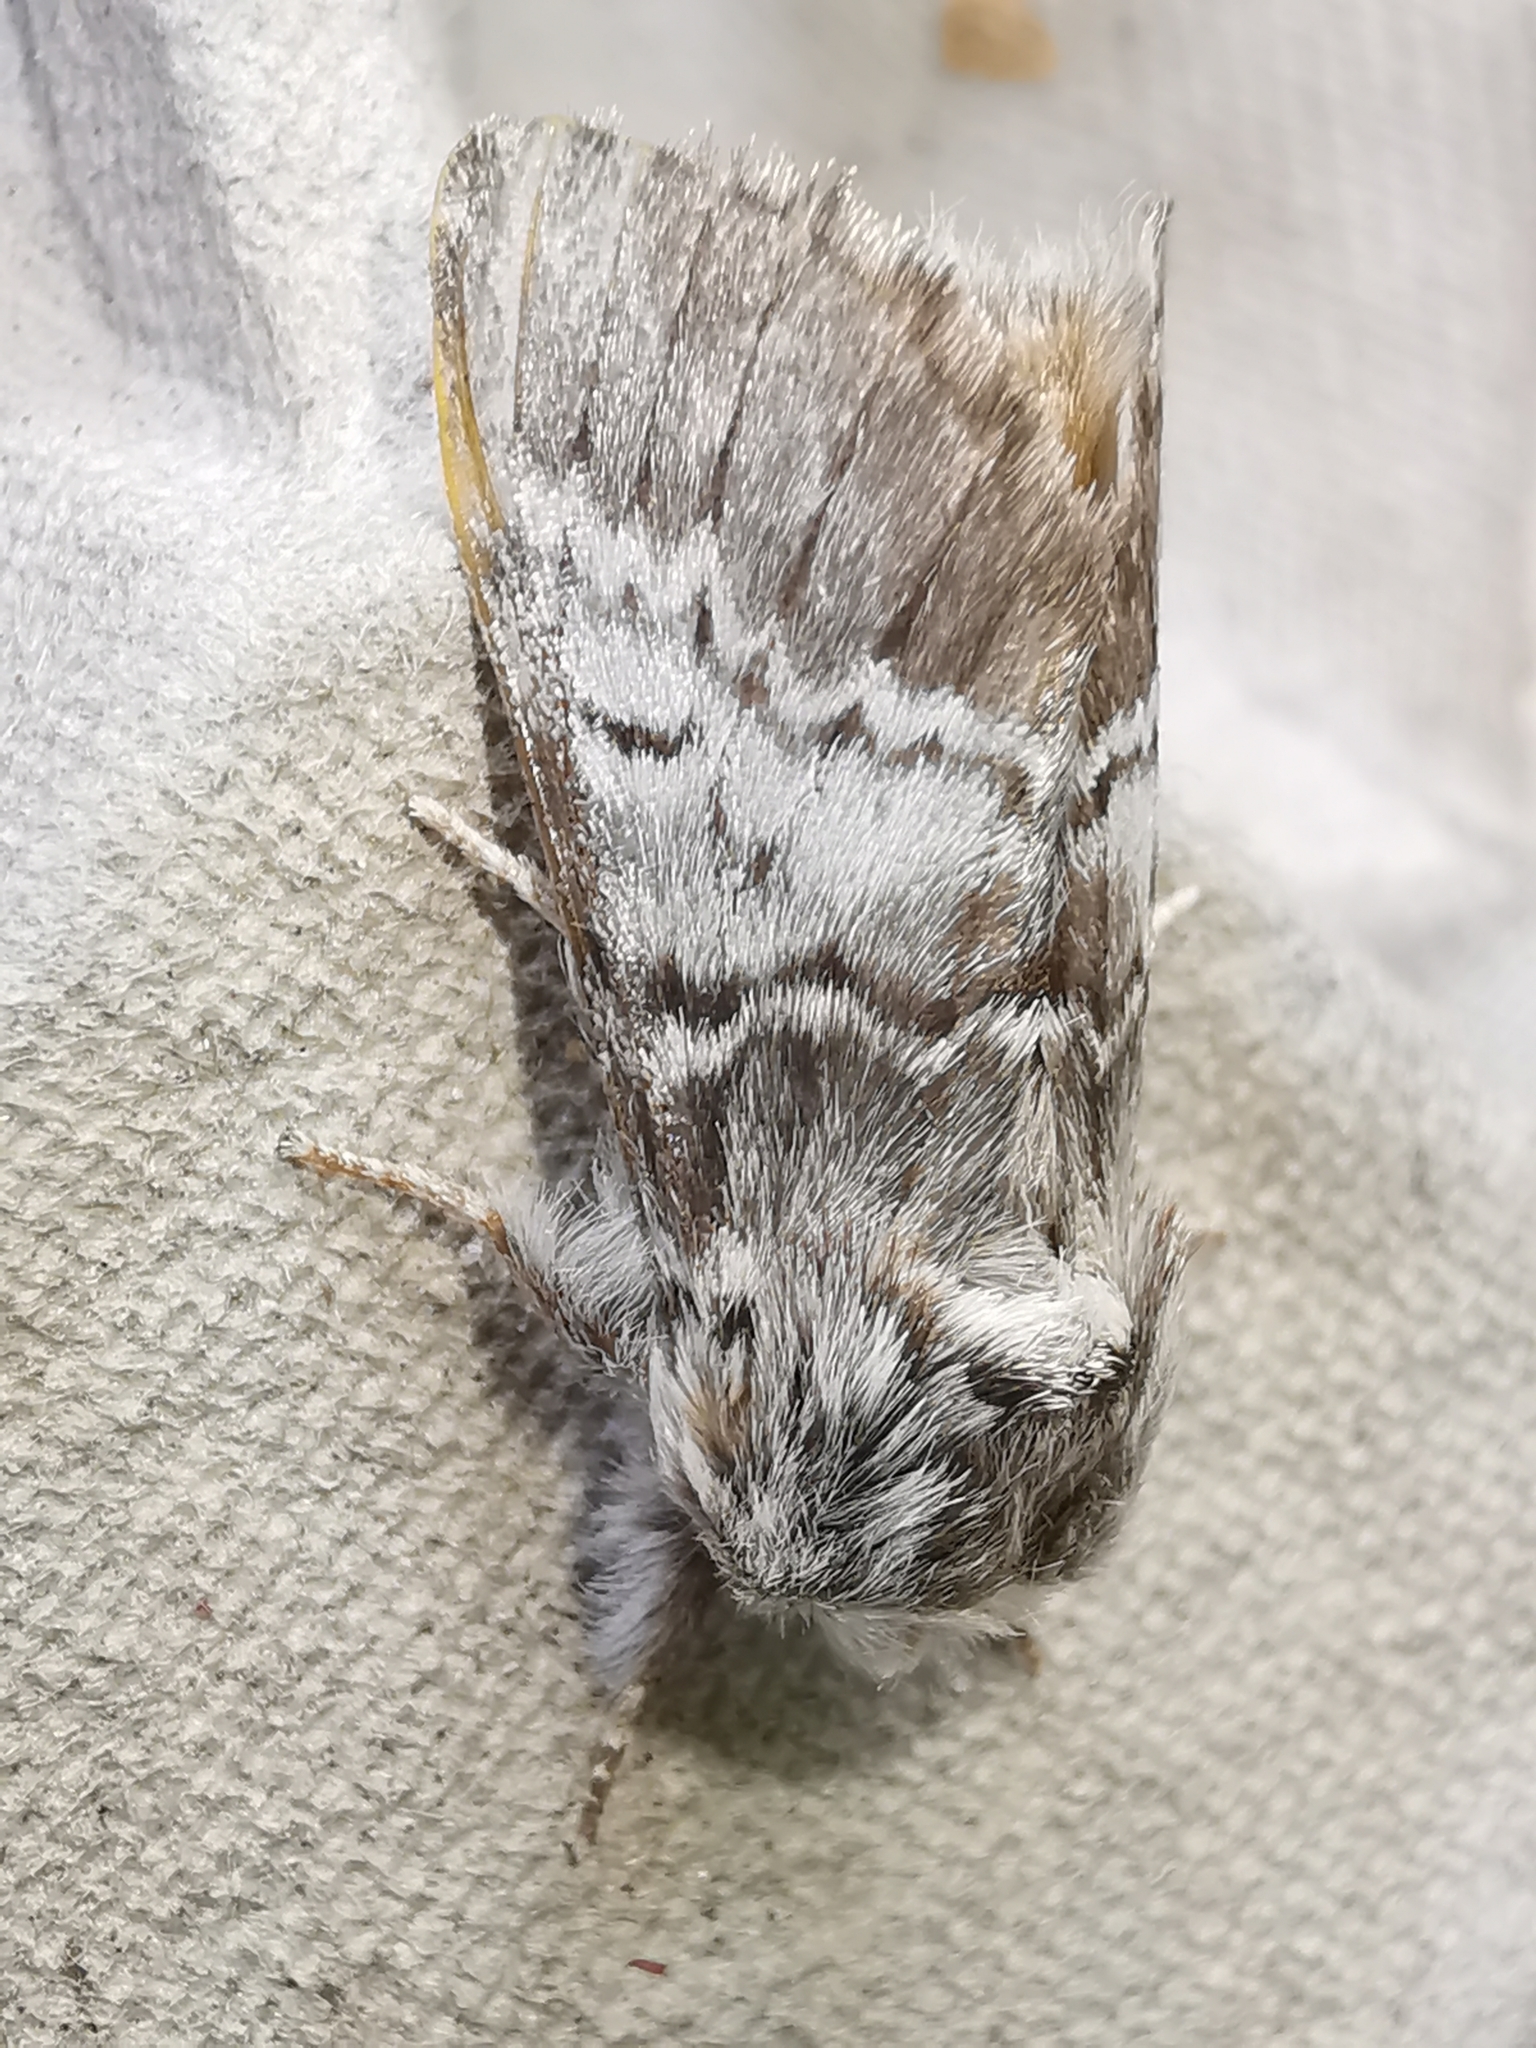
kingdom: Animalia
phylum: Arthropoda
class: Insecta
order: Lepidoptera
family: Notodontidae
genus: Drymonia
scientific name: Drymonia ruficornis
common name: Lunar marbled brown
